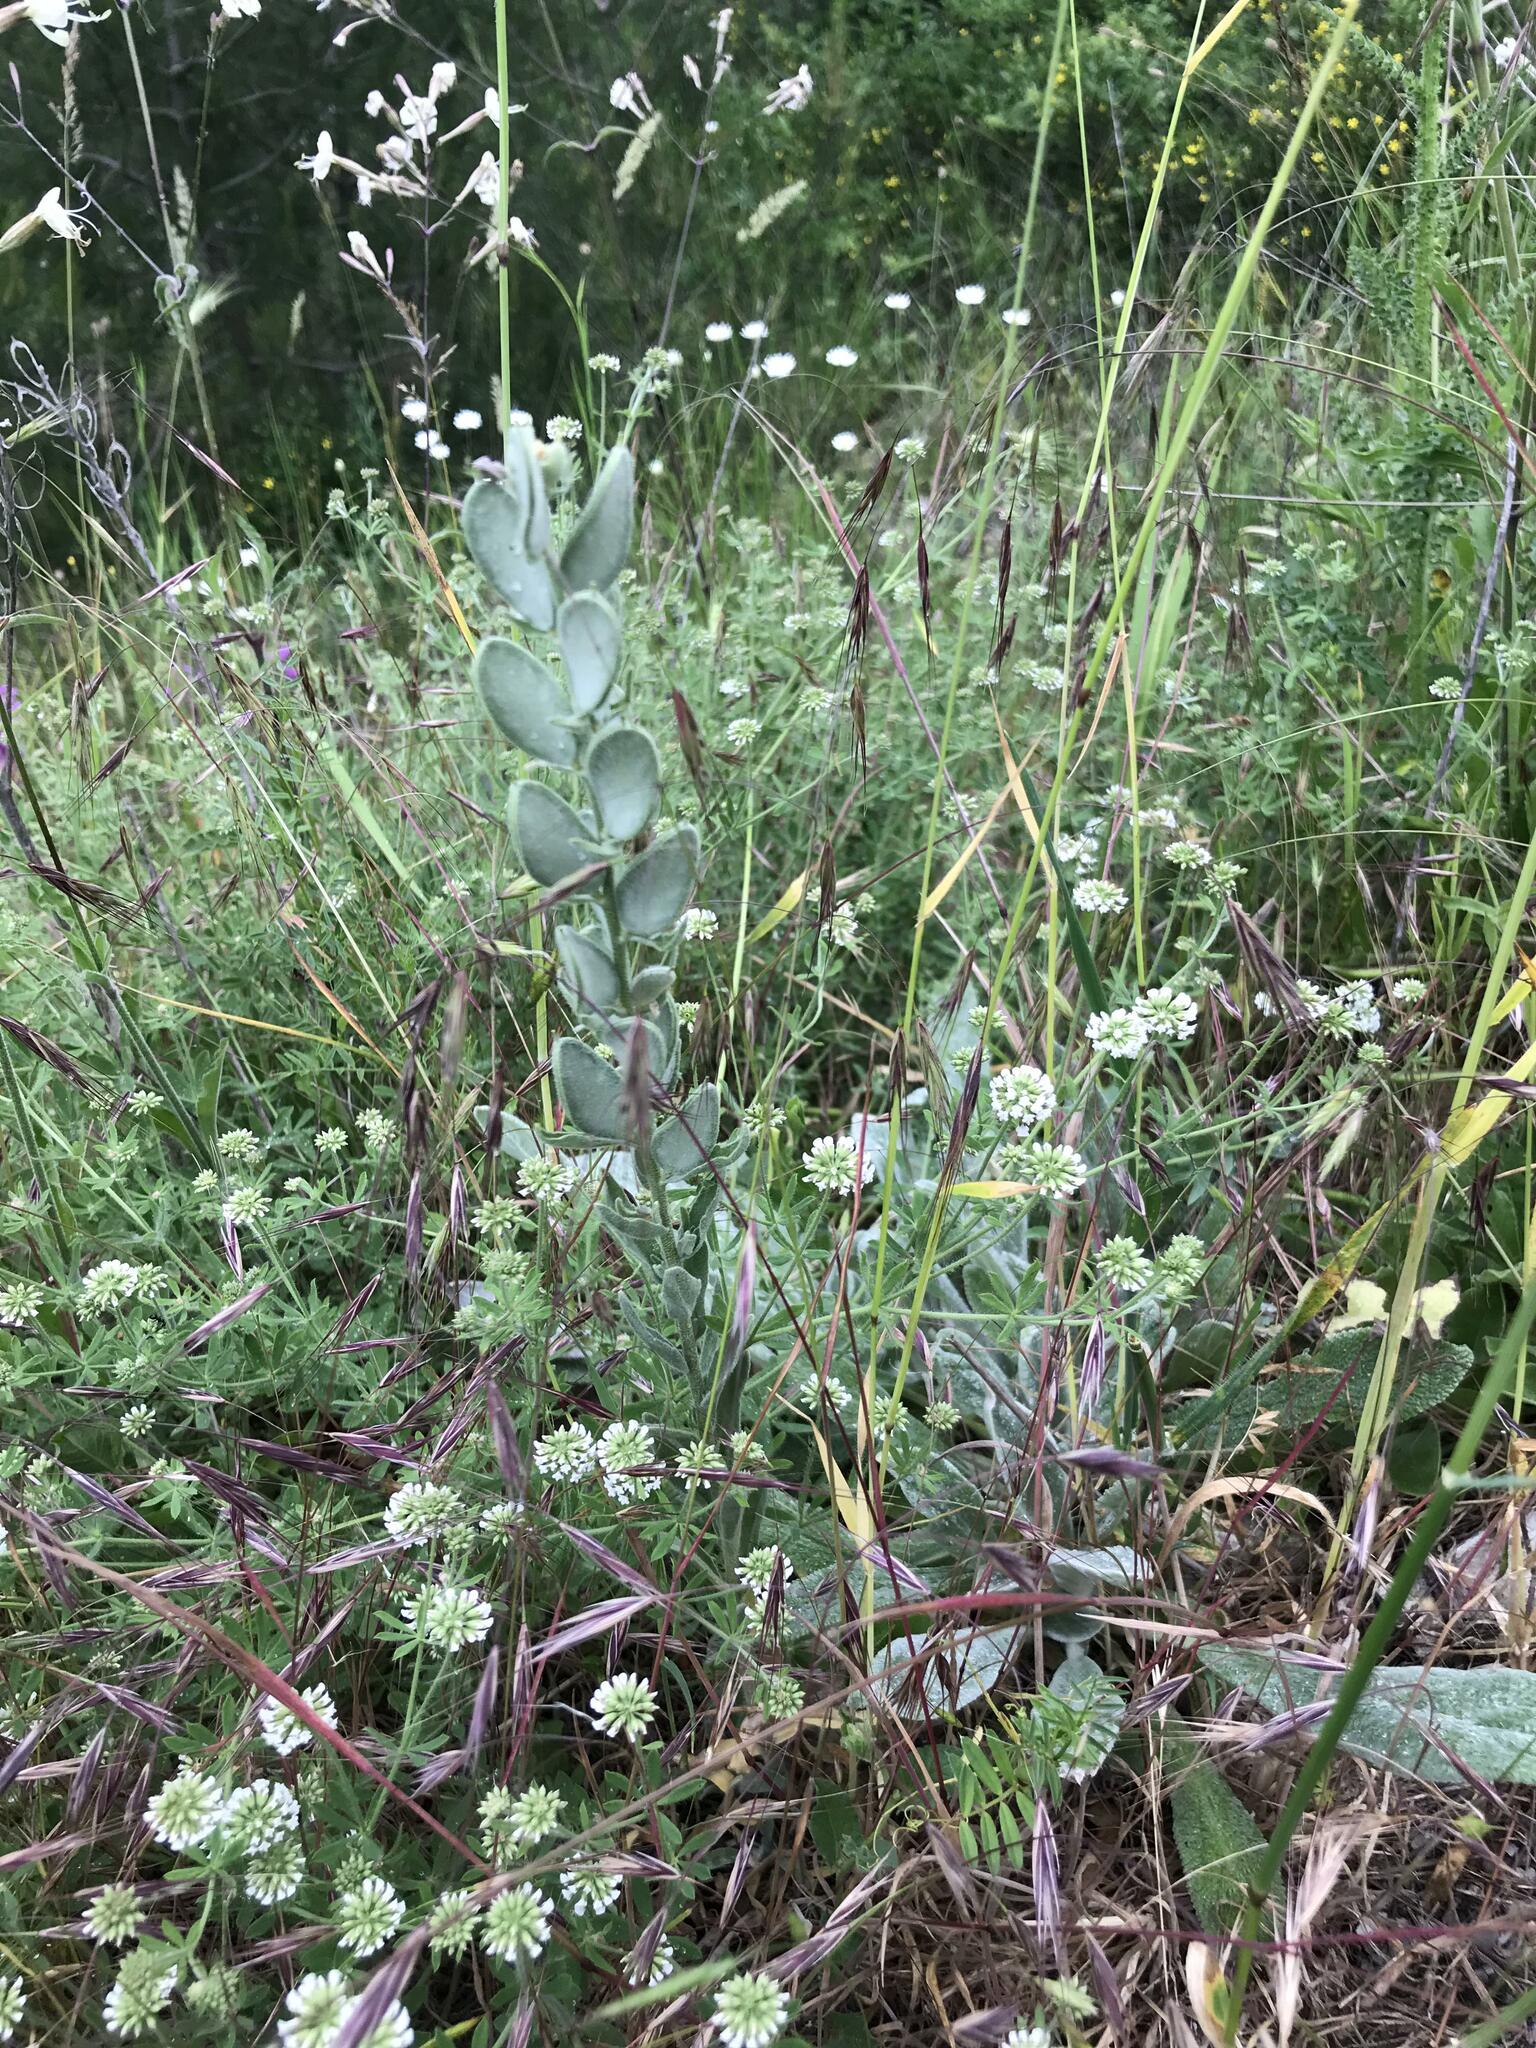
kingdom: Plantae
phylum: Tracheophyta
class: Magnoliopsida
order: Brassicales
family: Brassicaceae
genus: Fibigia
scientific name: Fibigia clypeata
